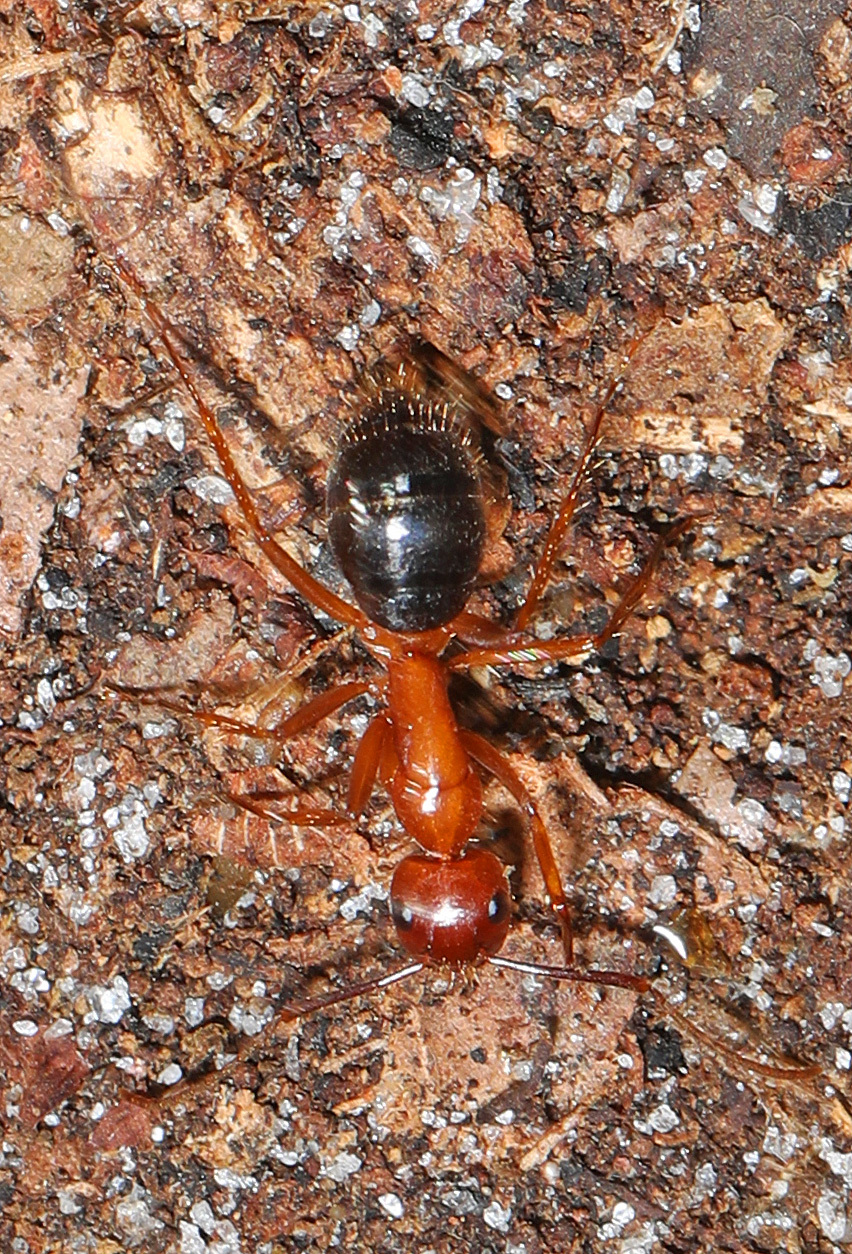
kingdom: Animalia
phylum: Arthropoda
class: Insecta
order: Hymenoptera
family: Formicidae
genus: Camponotus
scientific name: Camponotus floridanus
